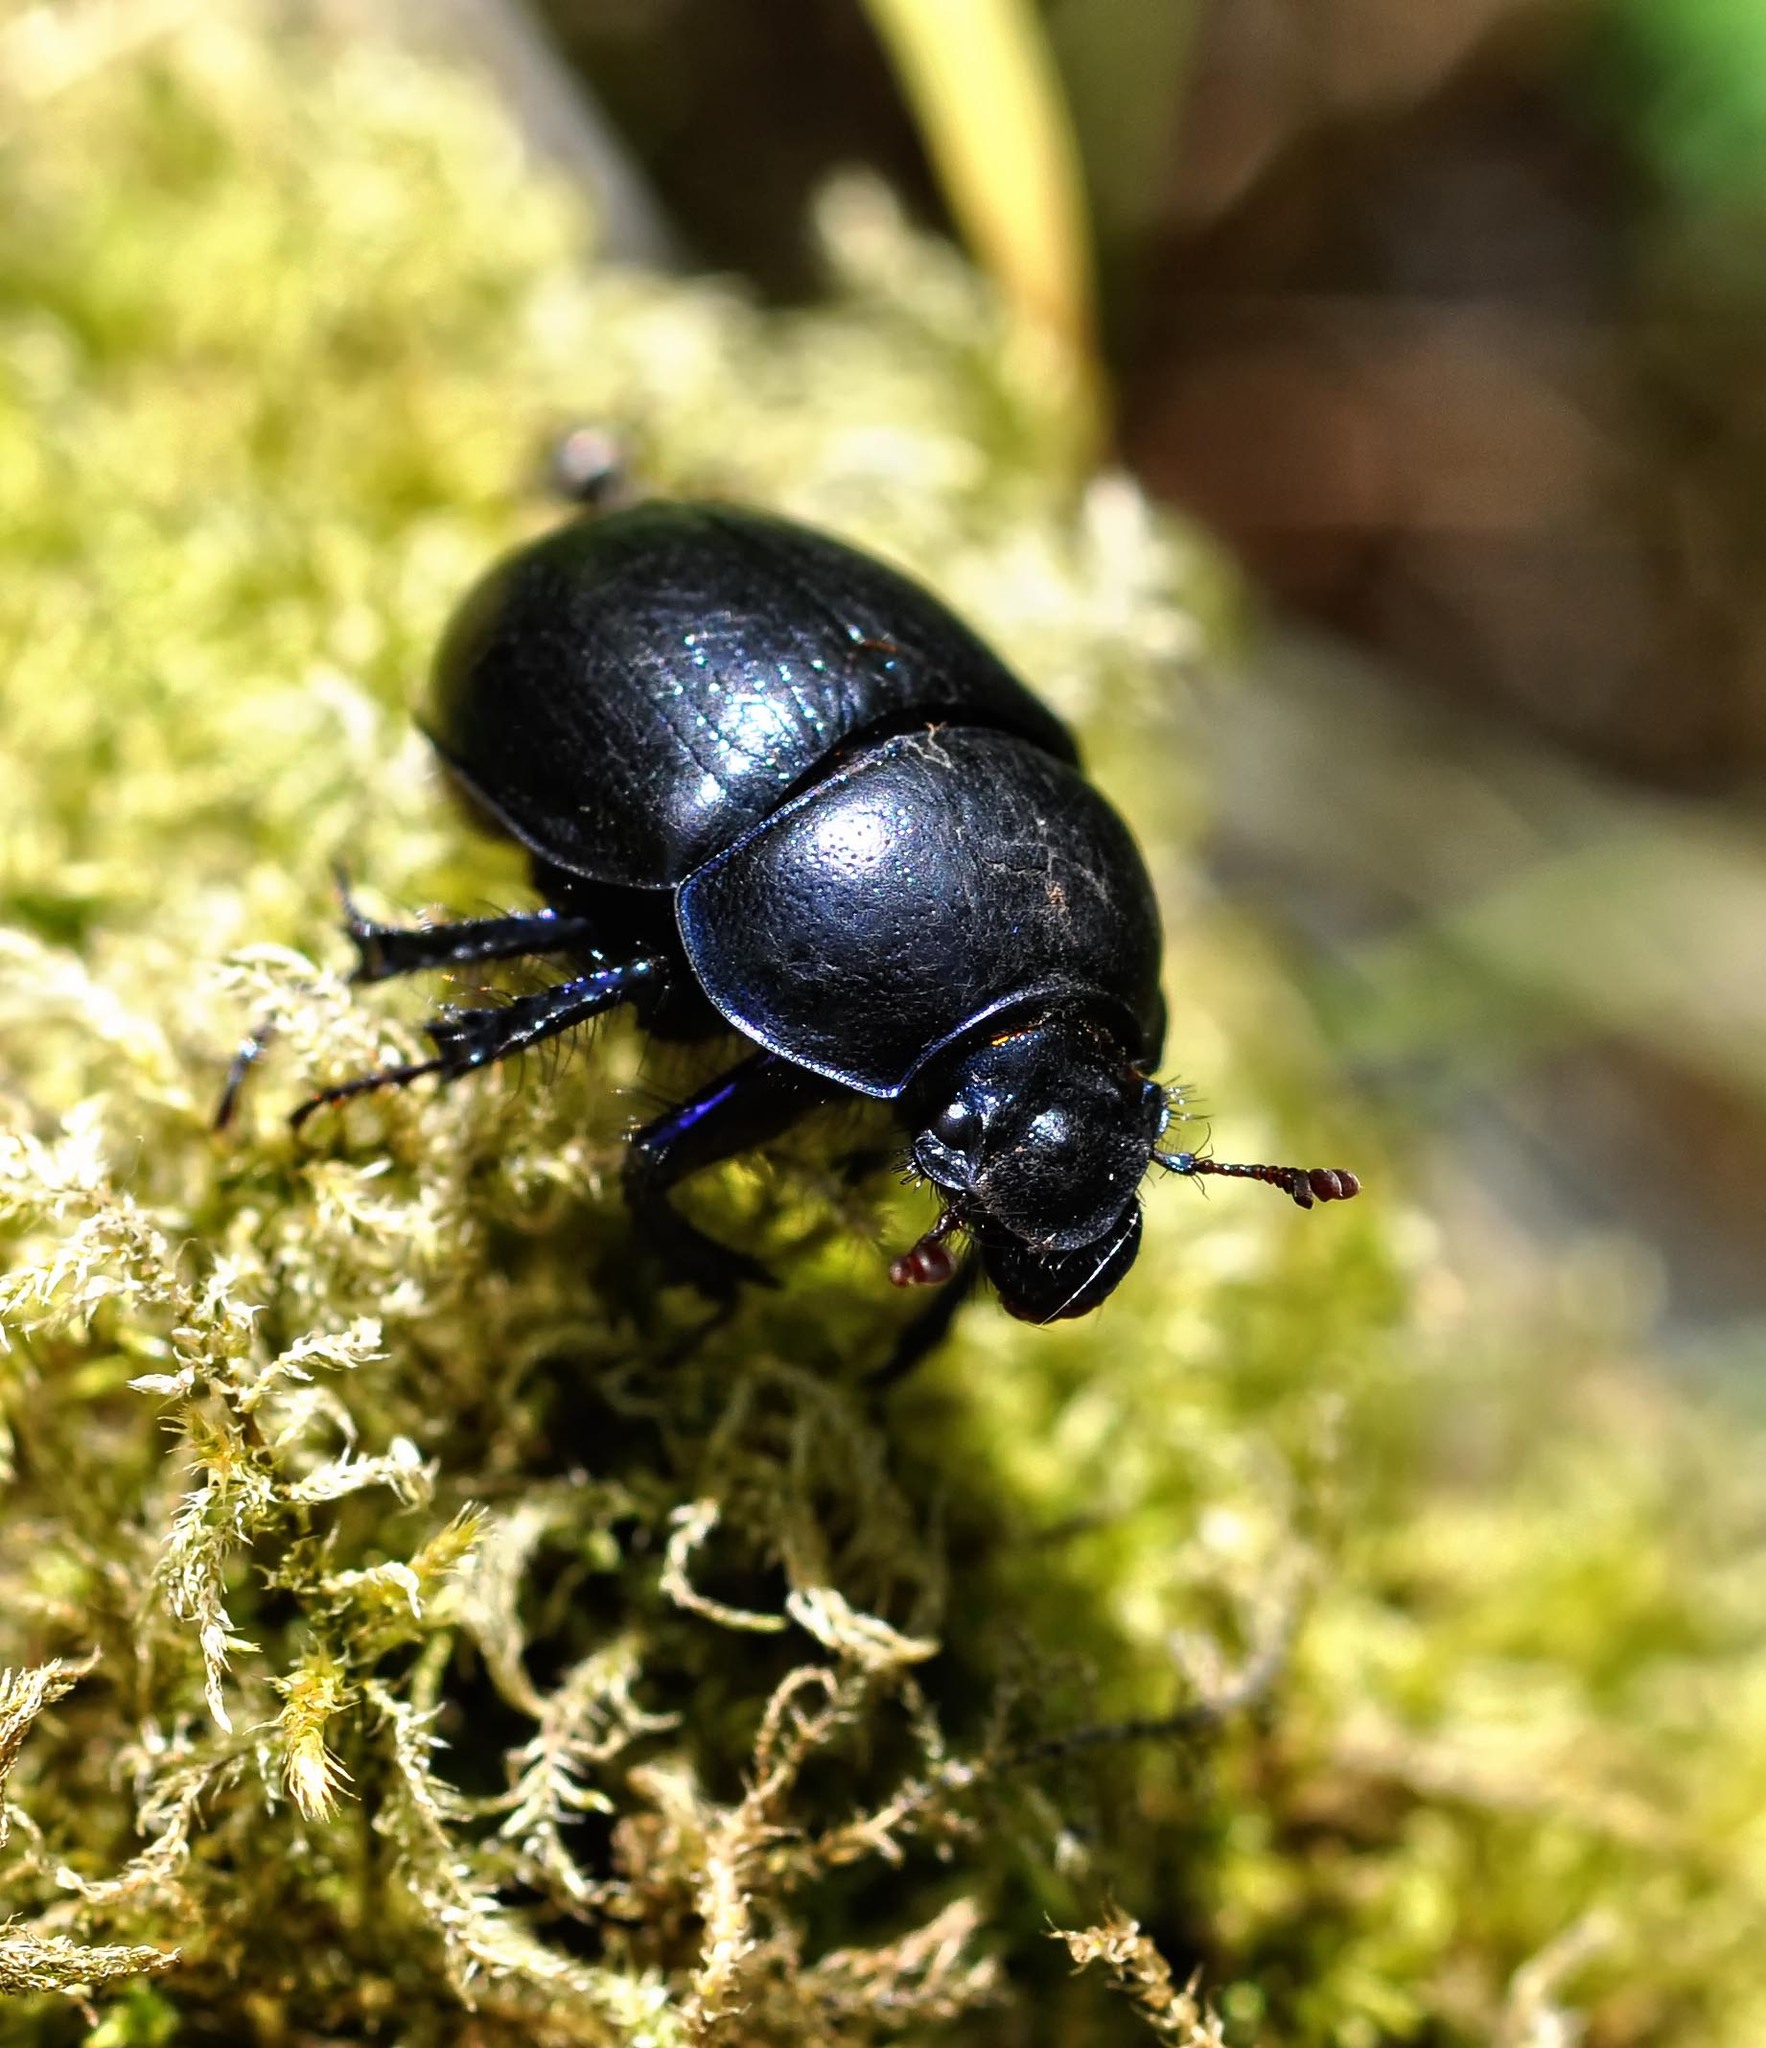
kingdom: Animalia
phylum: Arthropoda
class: Insecta
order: Coleoptera
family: Geotrupidae
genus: Anoplotrupes
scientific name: Anoplotrupes stercorosus
